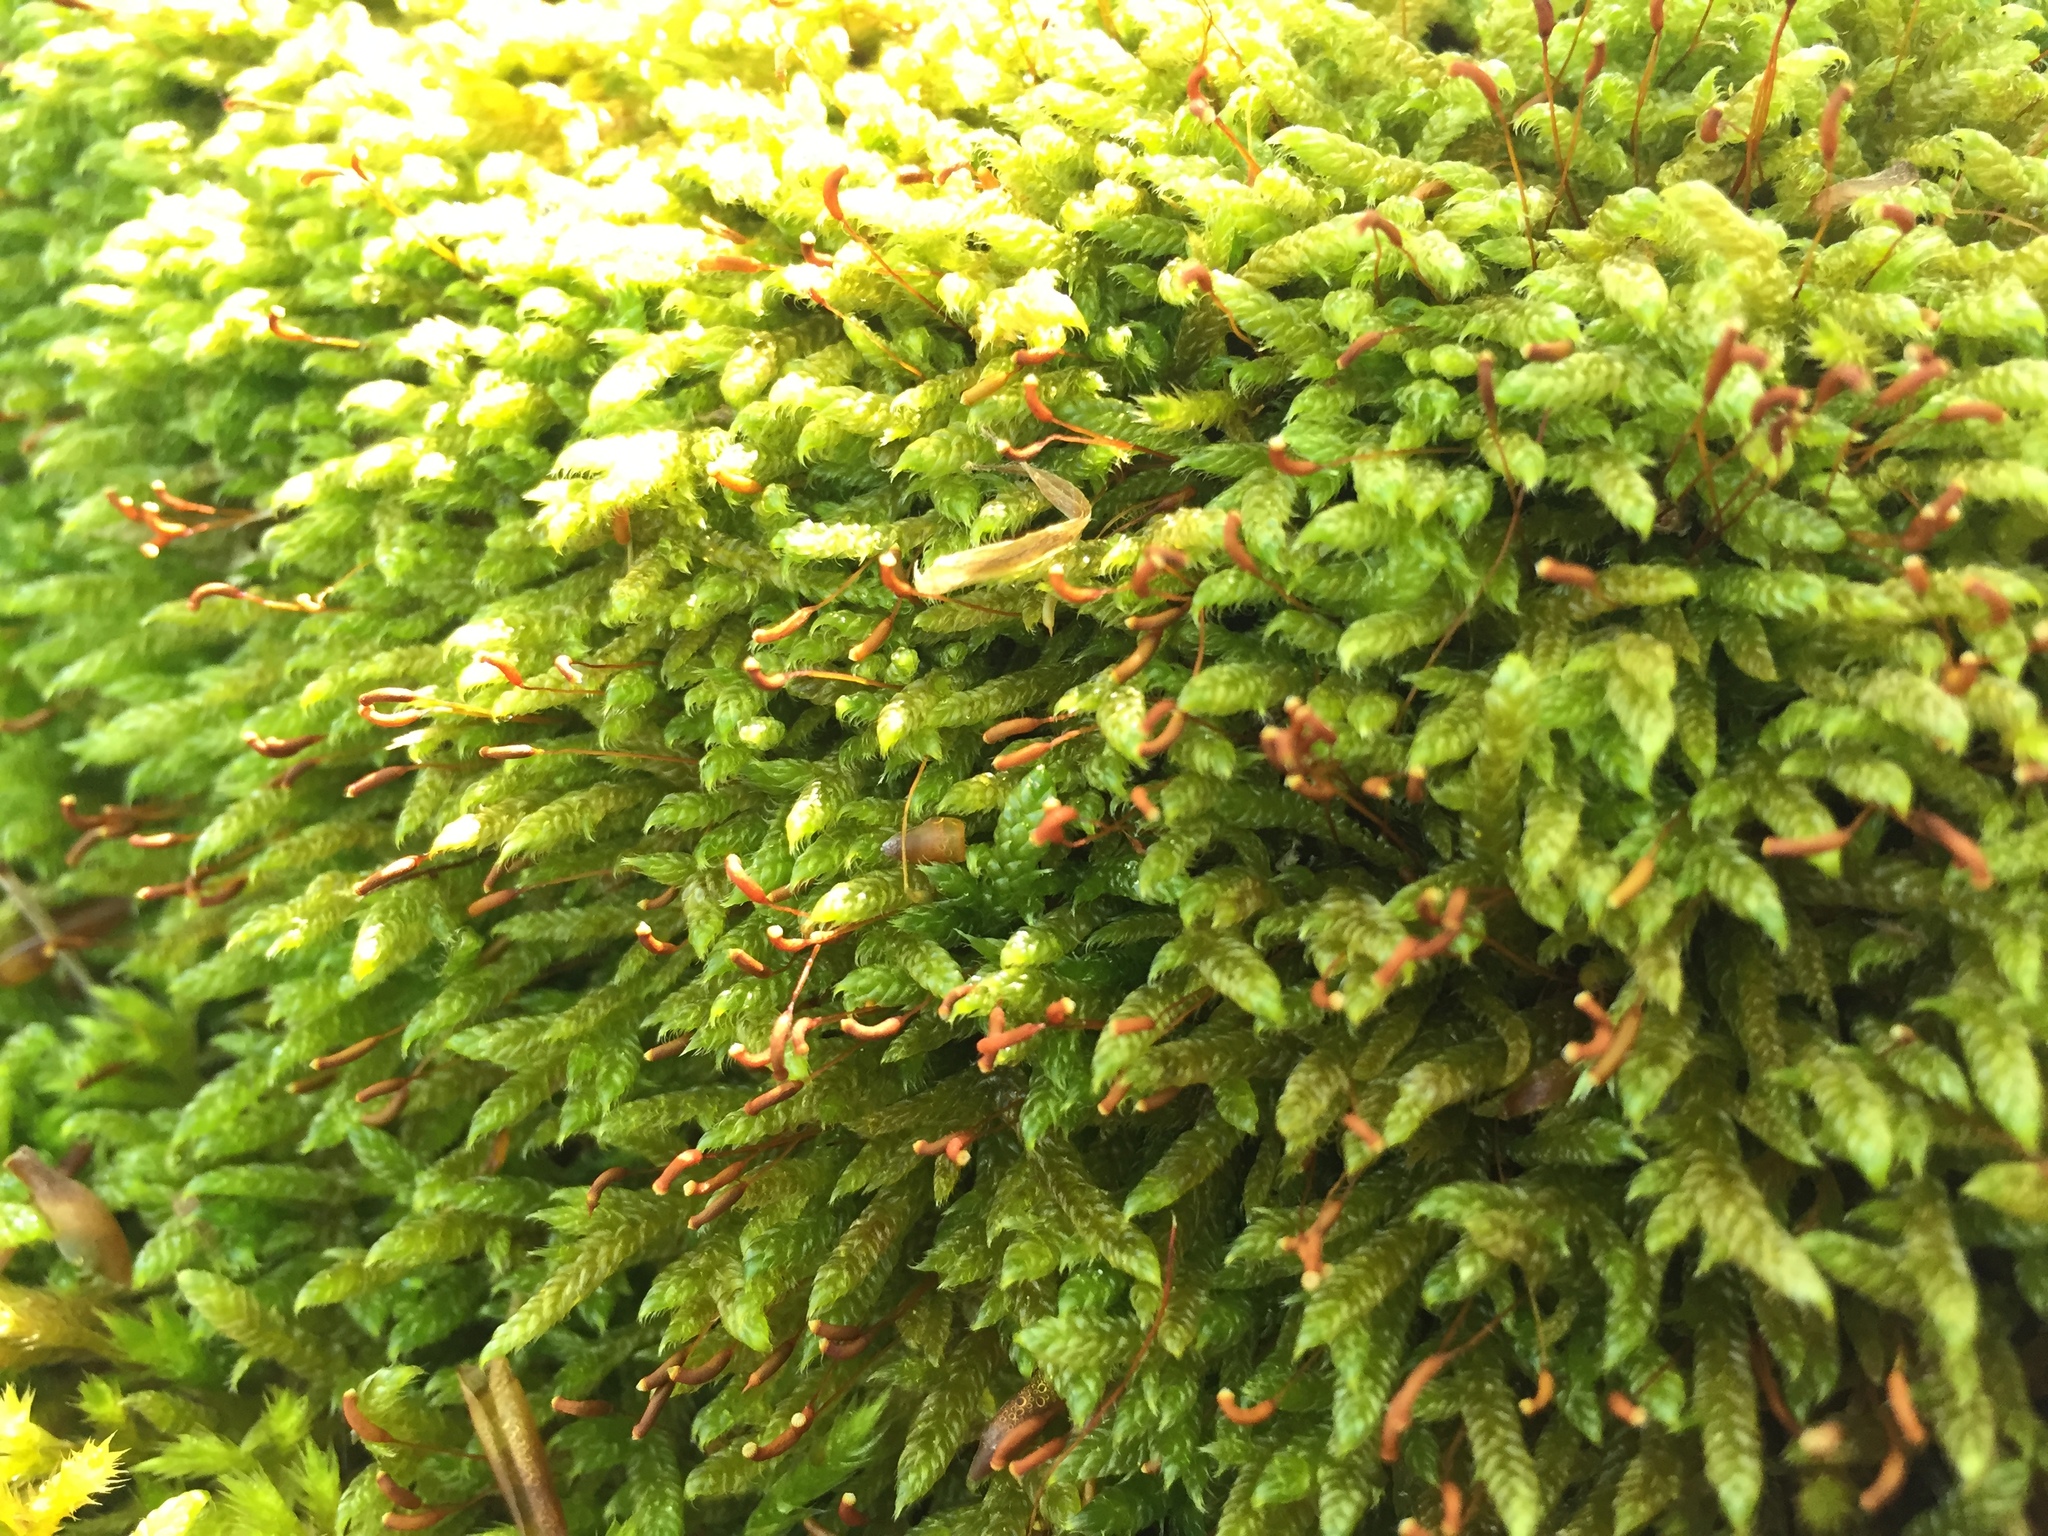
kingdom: Plantae
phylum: Bryophyta
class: Bryopsida
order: Hypnales
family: Hypnaceae
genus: Hypnum
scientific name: Hypnum cupressiforme
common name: Cypress-leaved plait-moss
